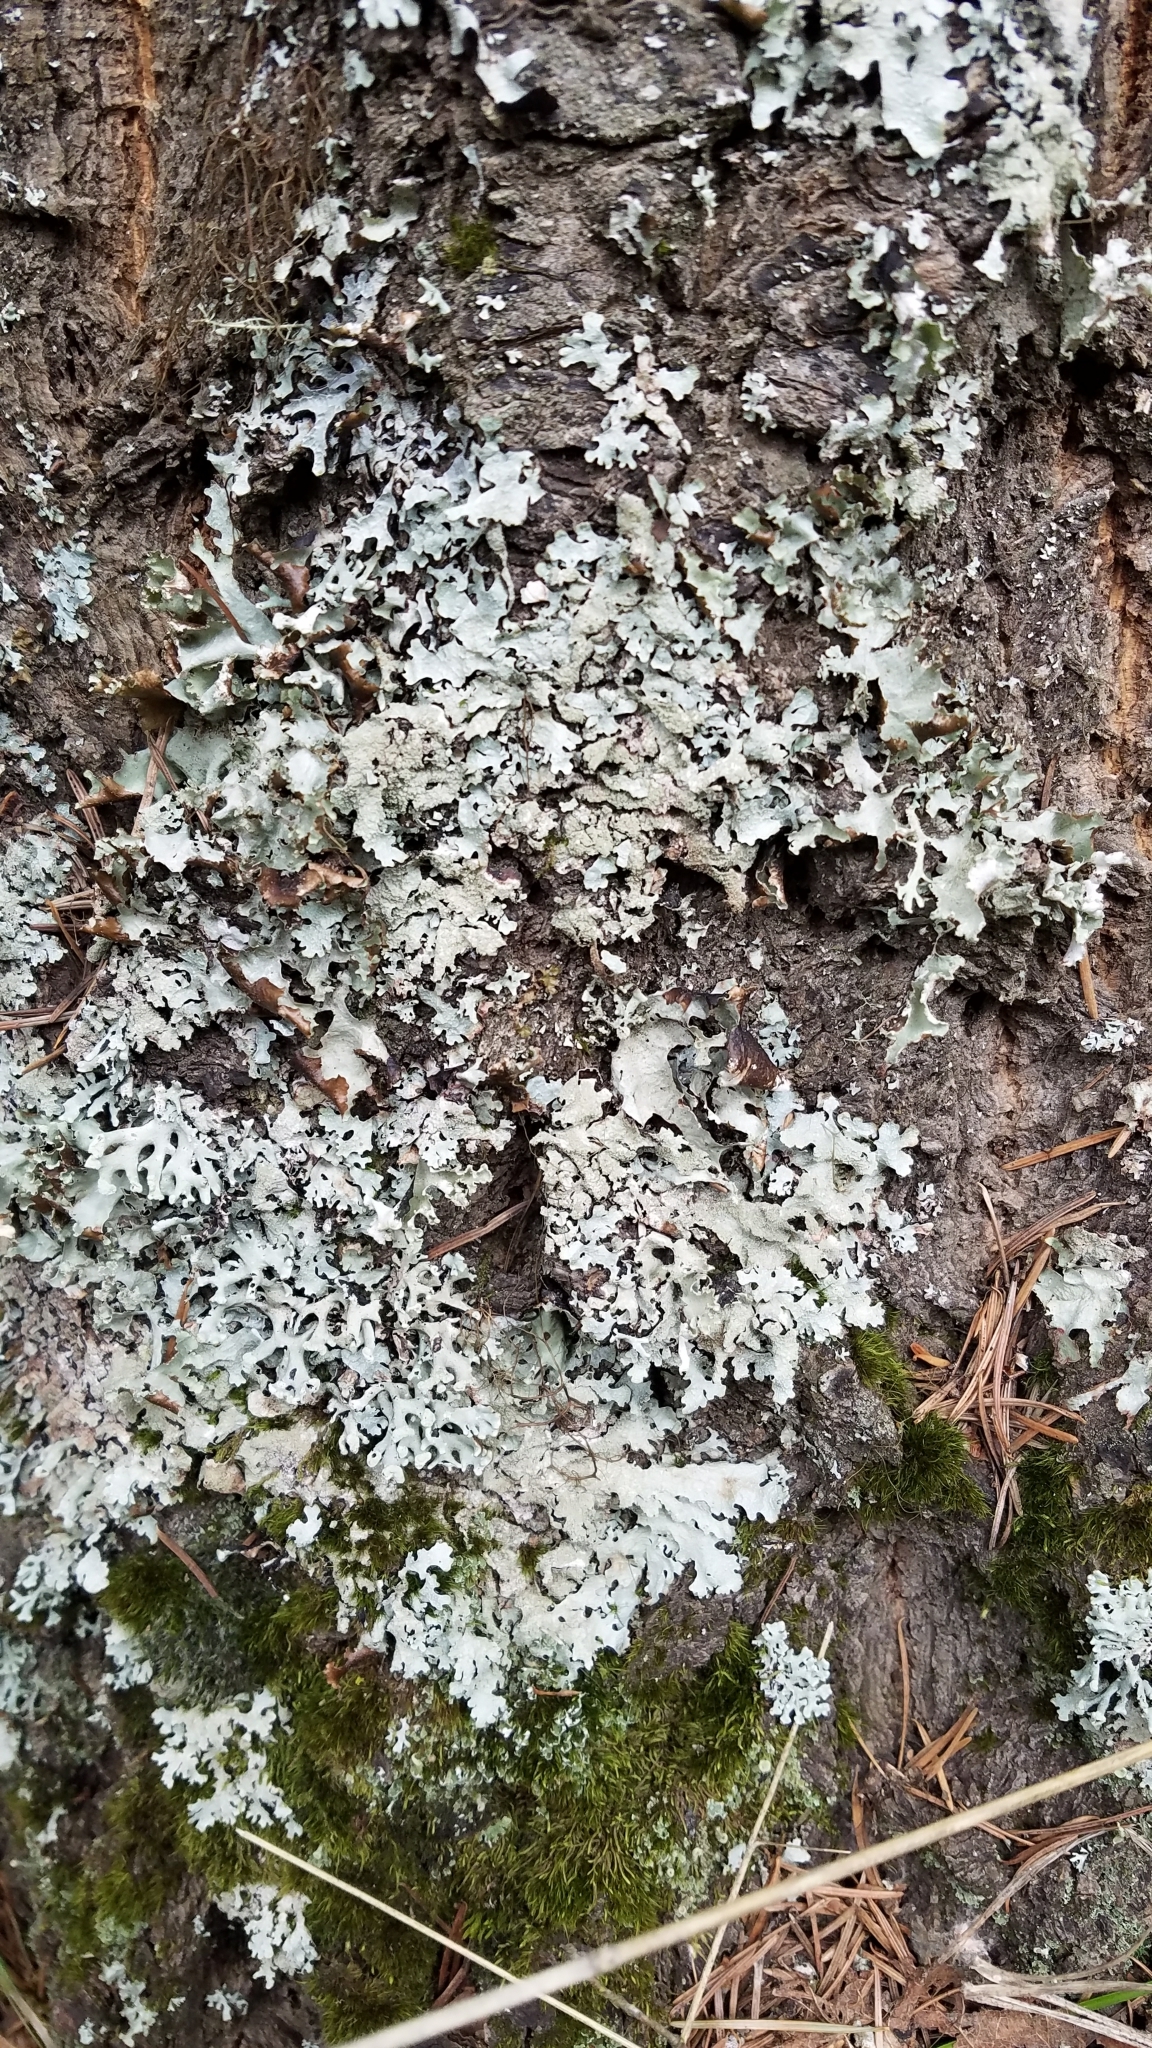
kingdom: Fungi
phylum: Ascomycota
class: Lecanoromycetes
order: Lecanorales
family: Parmeliaceae
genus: Parmelia
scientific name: Parmelia sulcata
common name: Netted shield lichen
